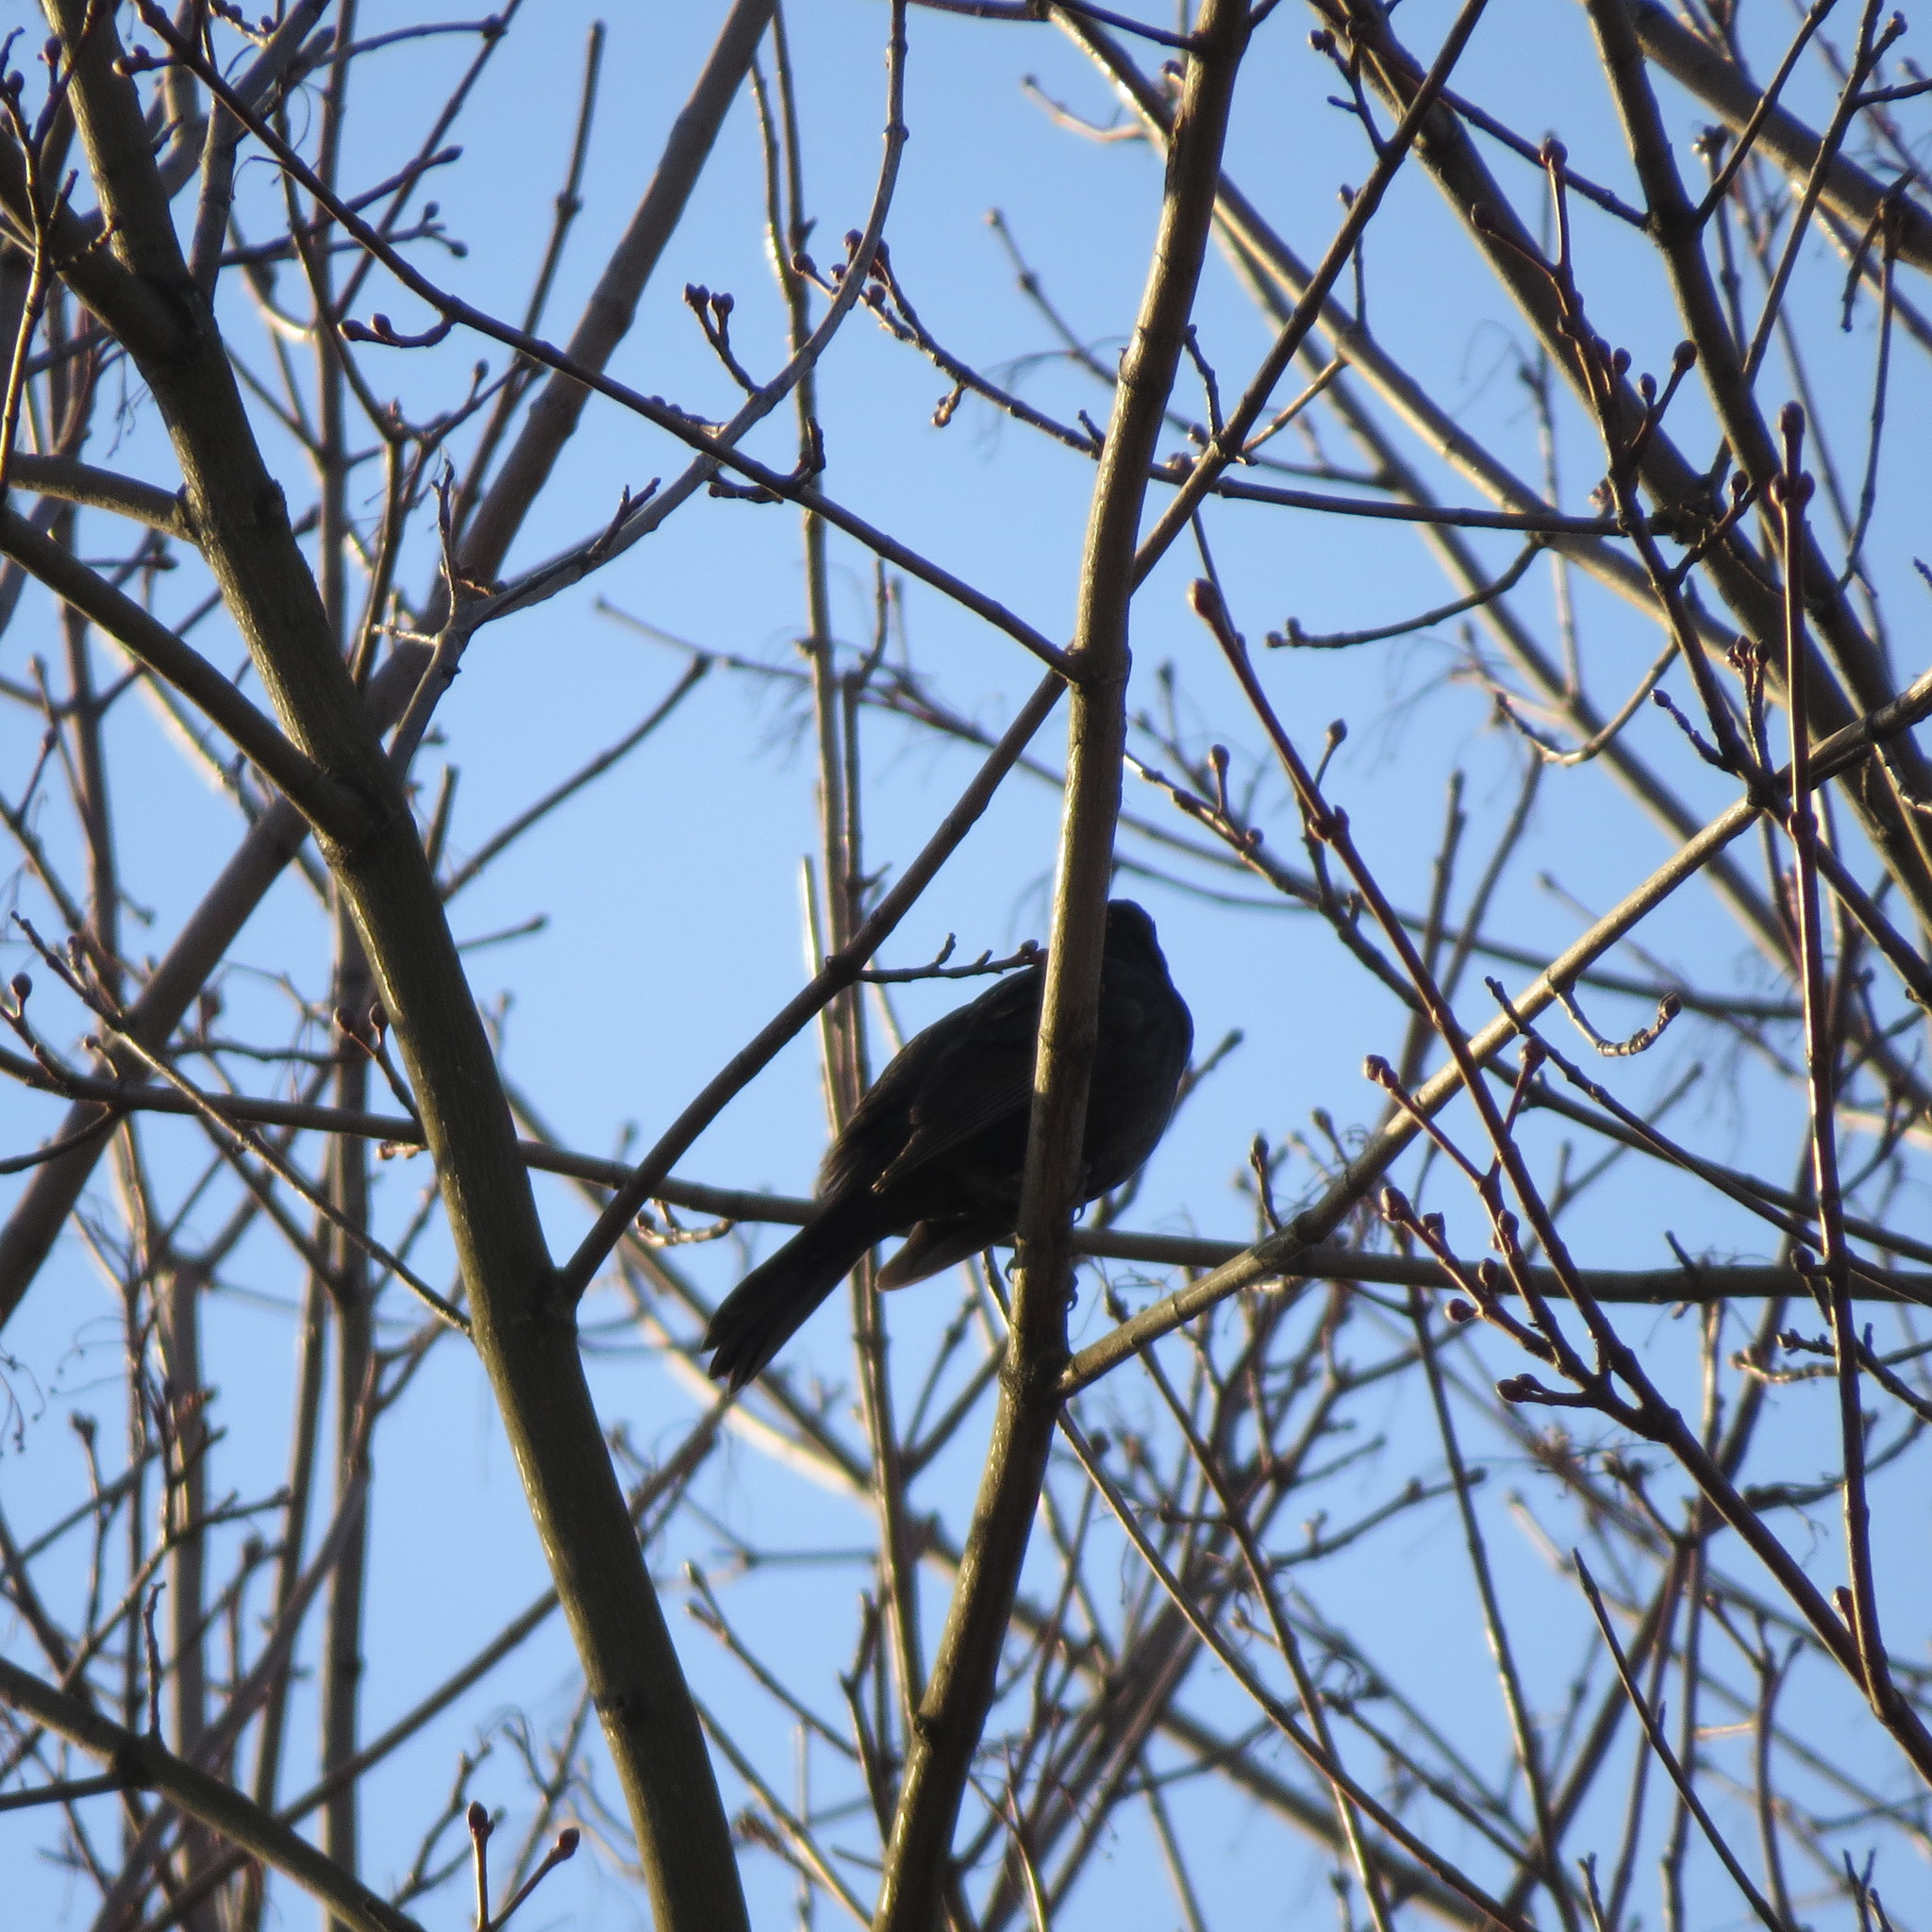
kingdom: Animalia
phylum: Chordata
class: Aves
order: Passeriformes
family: Turdidae
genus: Turdus
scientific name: Turdus merula
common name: Common blackbird
